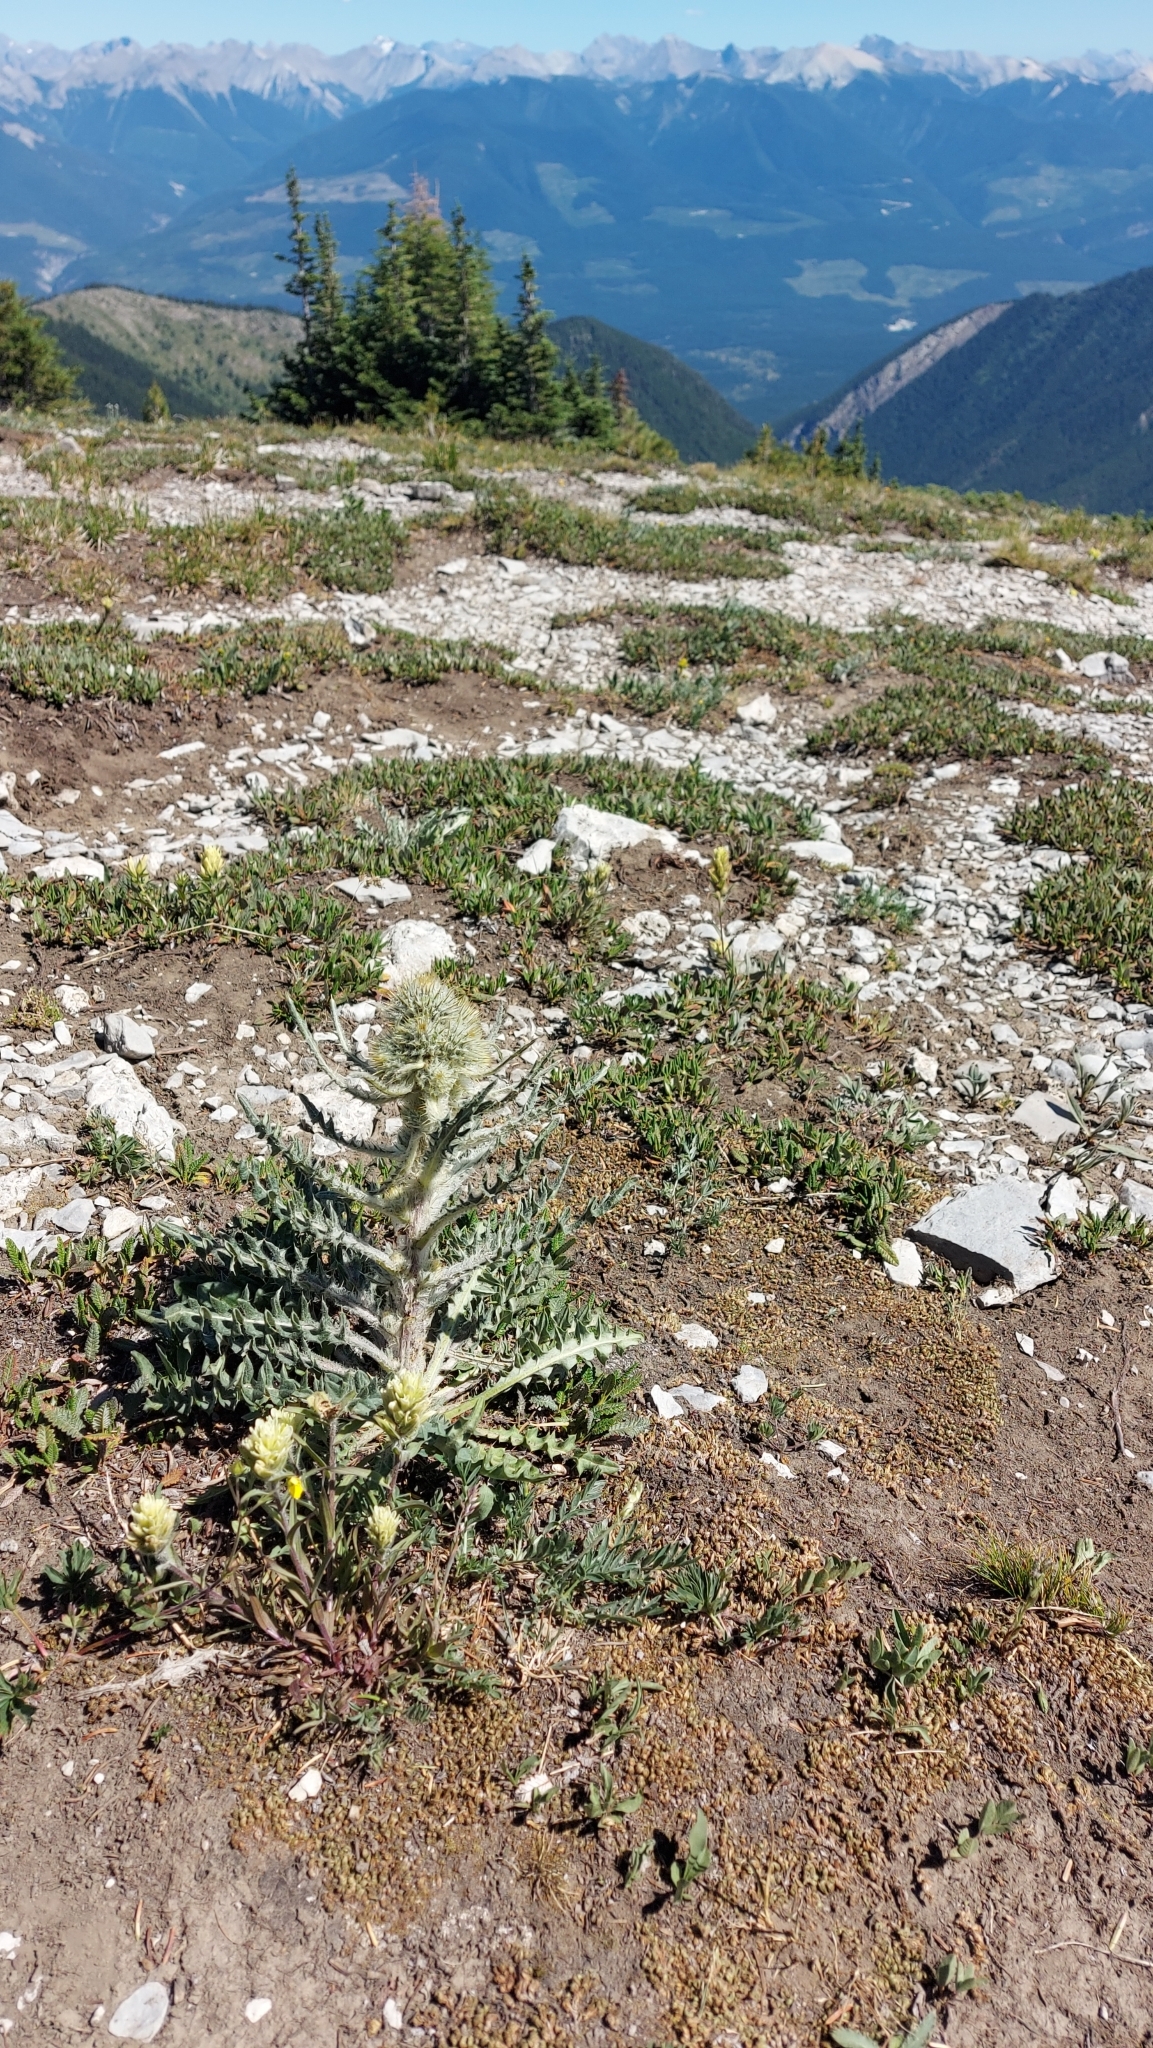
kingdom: Plantae
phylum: Tracheophyta
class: Magnoliopsida
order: Asterales
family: Asteraceae
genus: Cirsium
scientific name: Cirsium hookerianum
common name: Hooker's thistle
